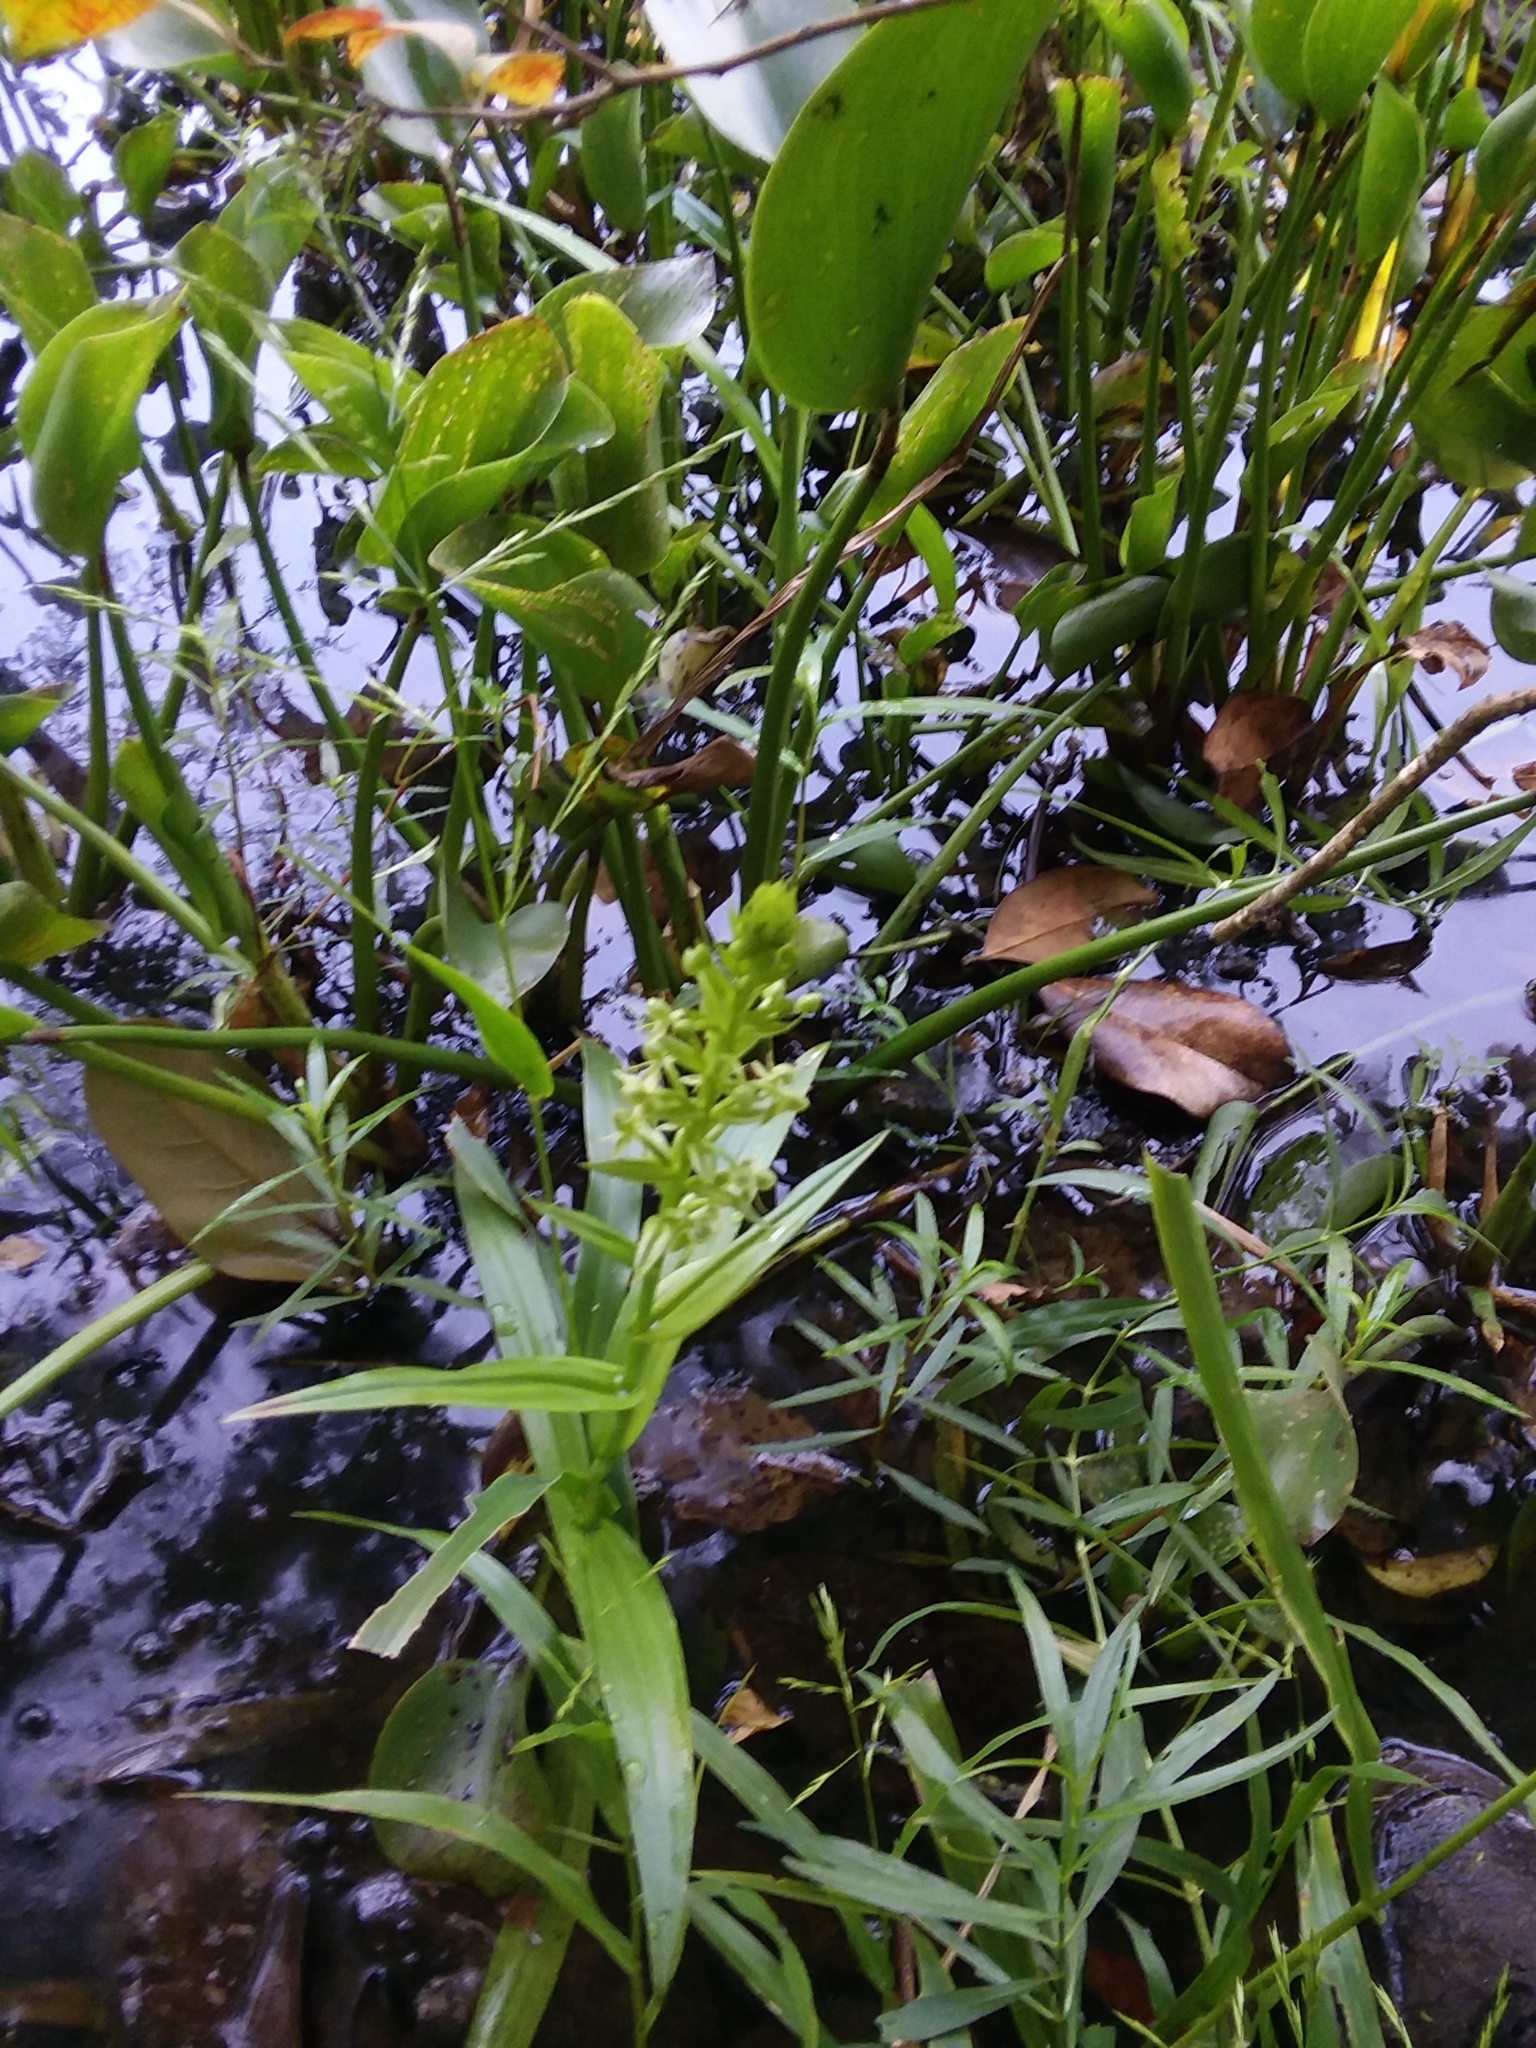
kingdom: Plantae
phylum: Tracheophyta
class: Liliopsida
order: Asparagales
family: Orchidaceae
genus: Habenaria
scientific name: Habenaria repens
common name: Water orchid
